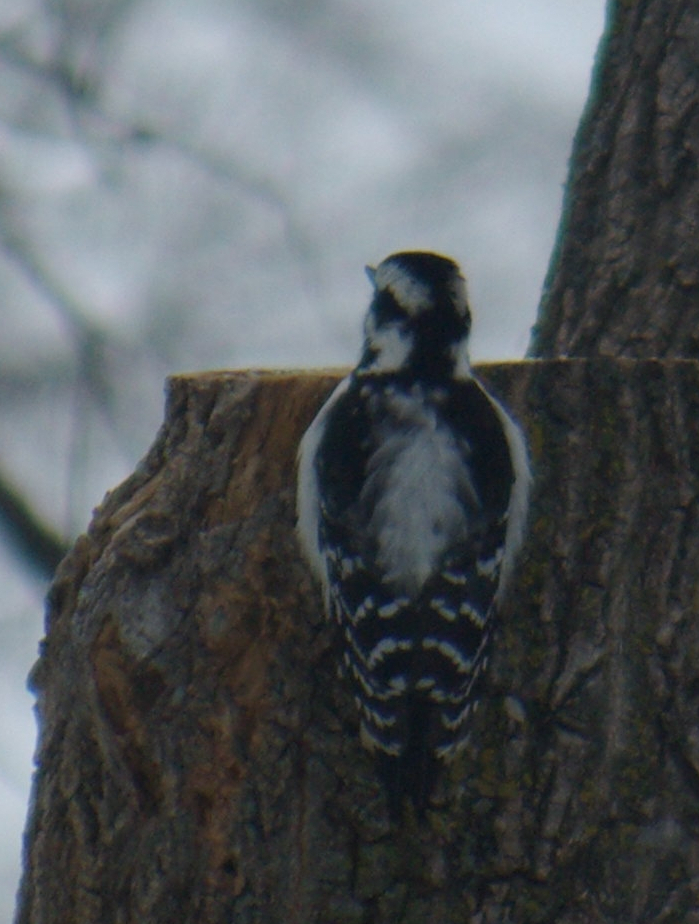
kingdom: Animalia
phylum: Chordata
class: Aves
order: Piciformes
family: Picidae
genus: Dryobates
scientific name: Dryobates pubescens
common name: Downy woodpecker
